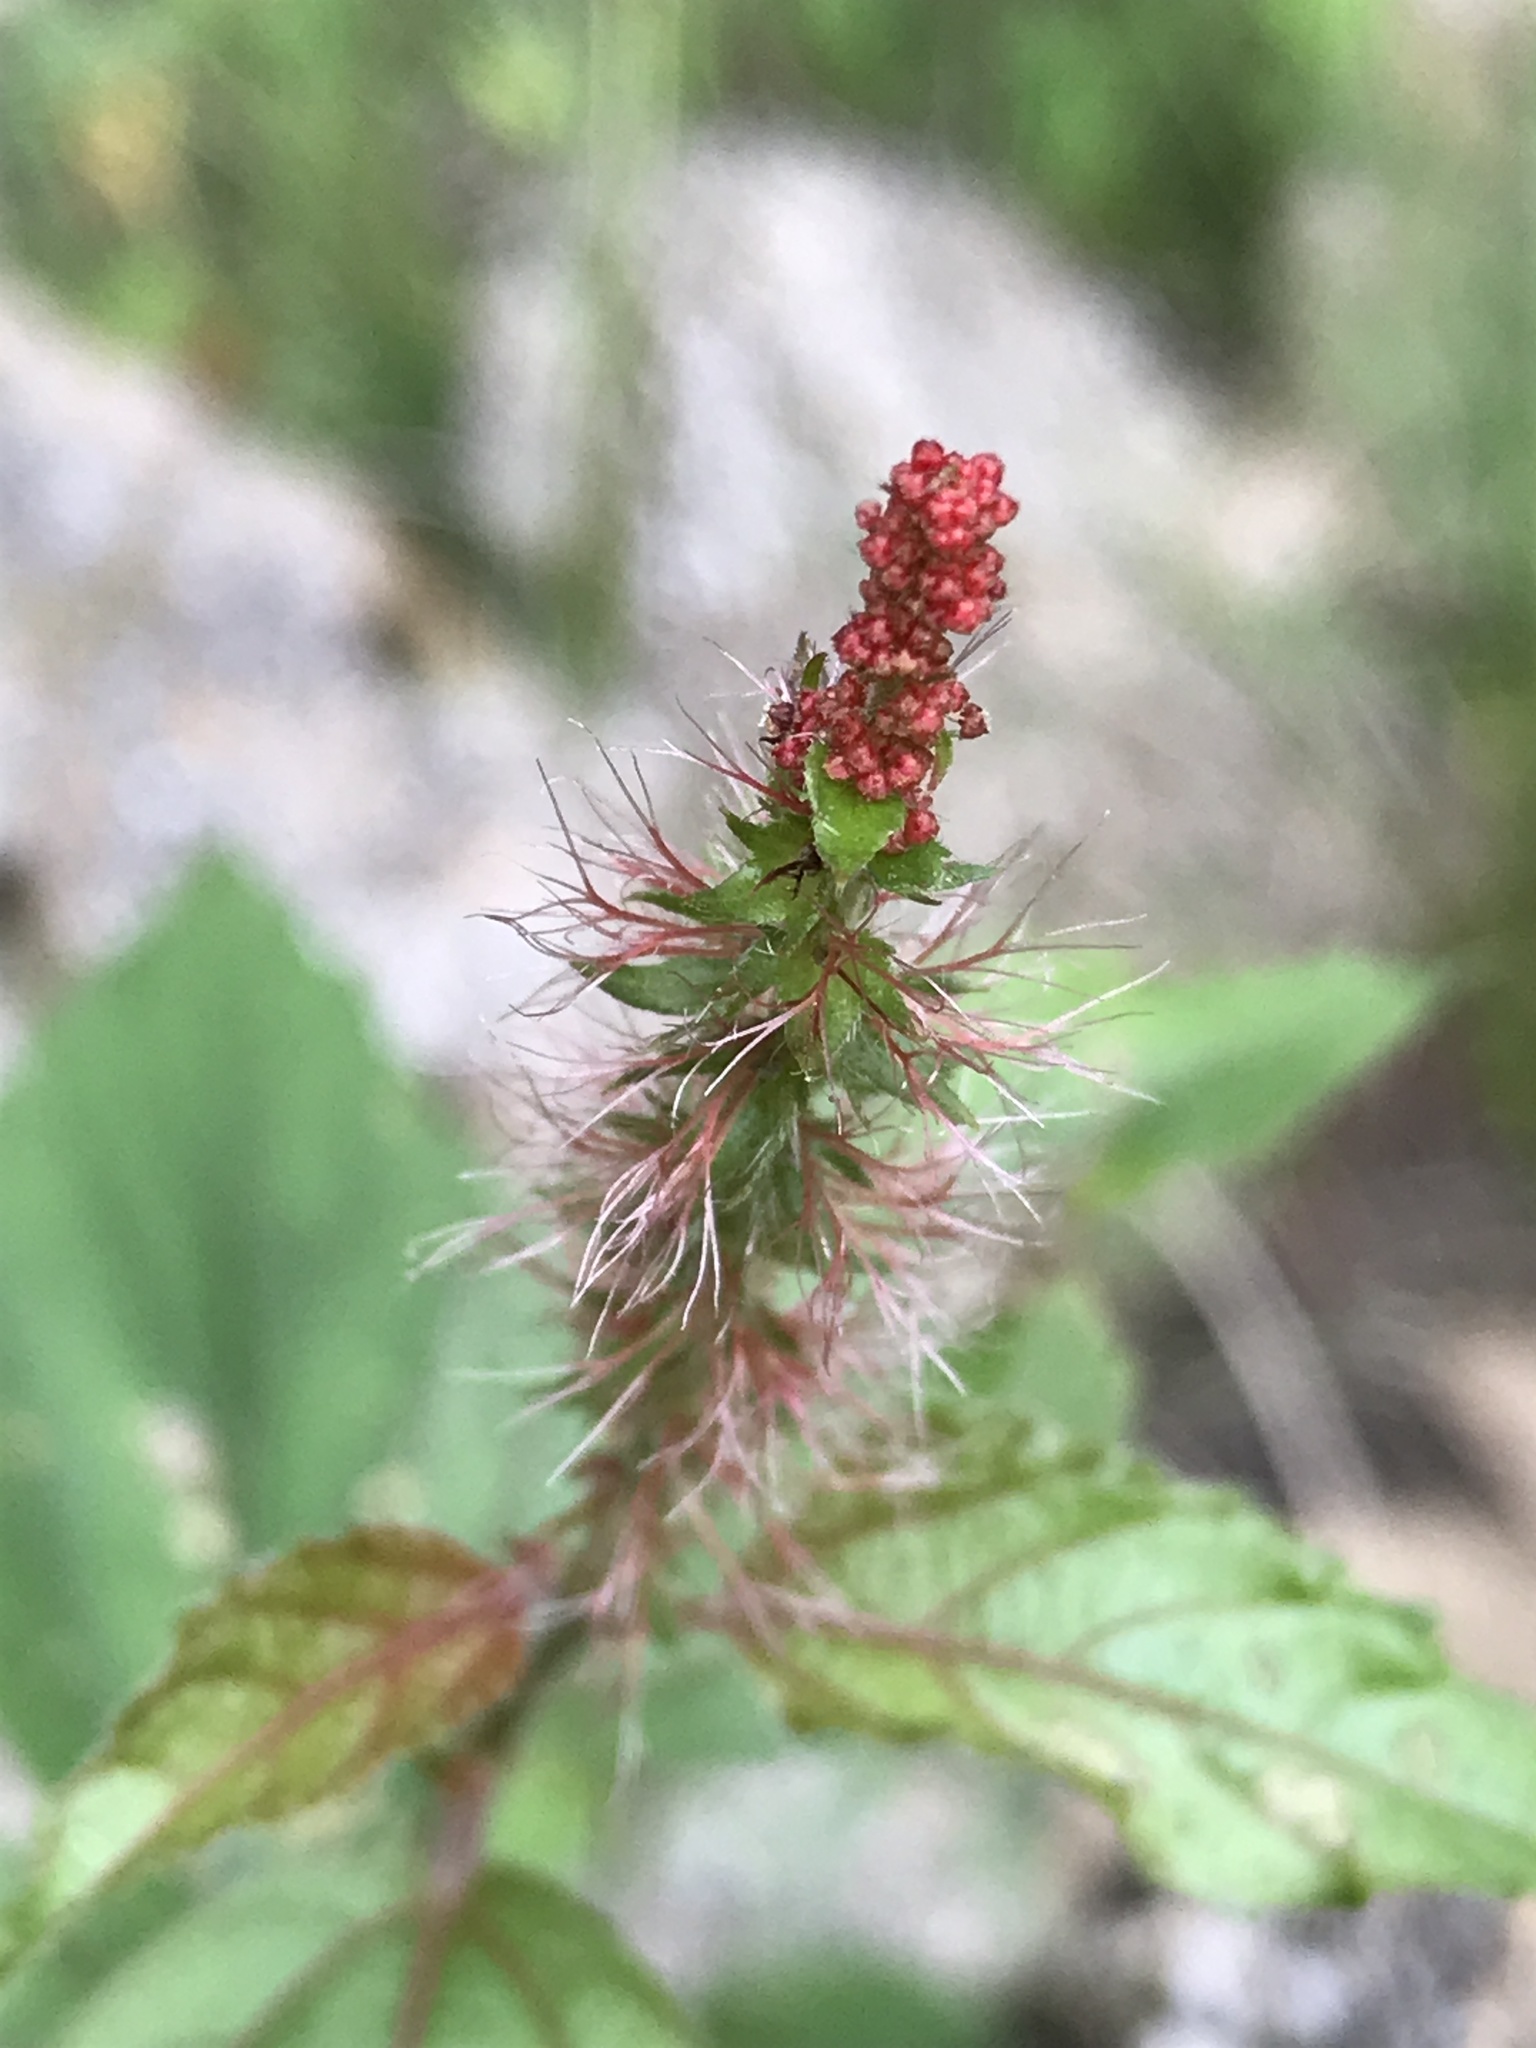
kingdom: Plantae
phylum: Tracheophyta
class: Magnoliopsida
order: Malpighiales
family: Euphorbiaceae
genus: Acalypha
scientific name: Acalypha phleoides
